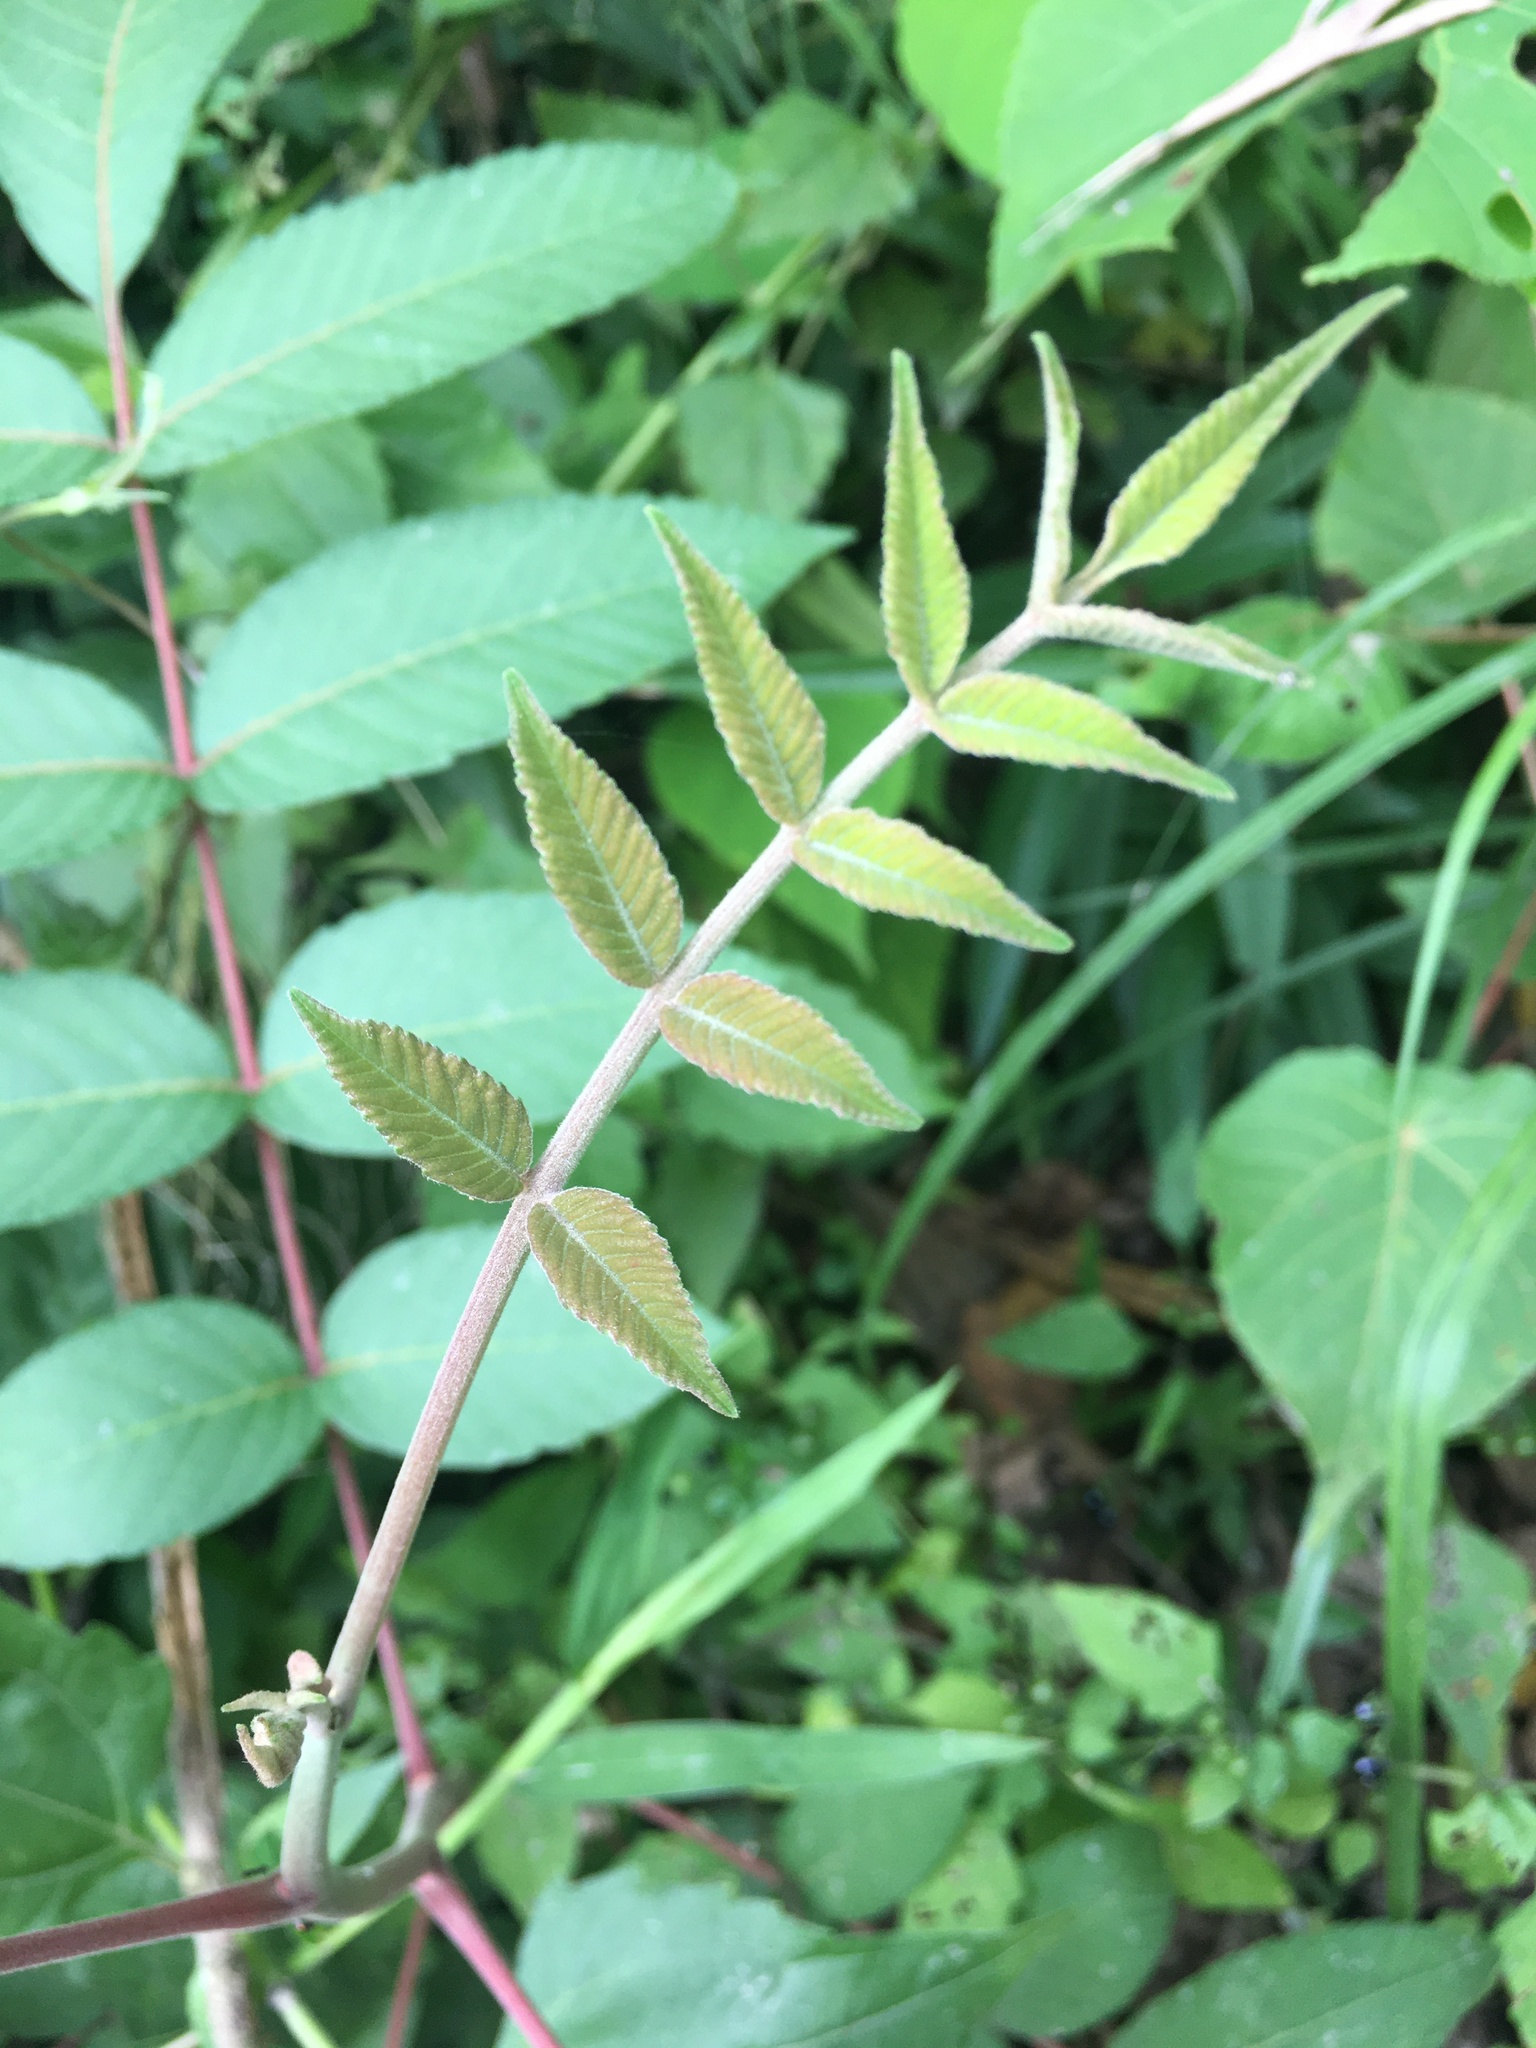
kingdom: Plantae
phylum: Tracheophyta
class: Magnoliopsida
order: Sapindales
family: Anacardiaceae
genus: Rhus
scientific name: Rhus chinensis
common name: Chinese gall
